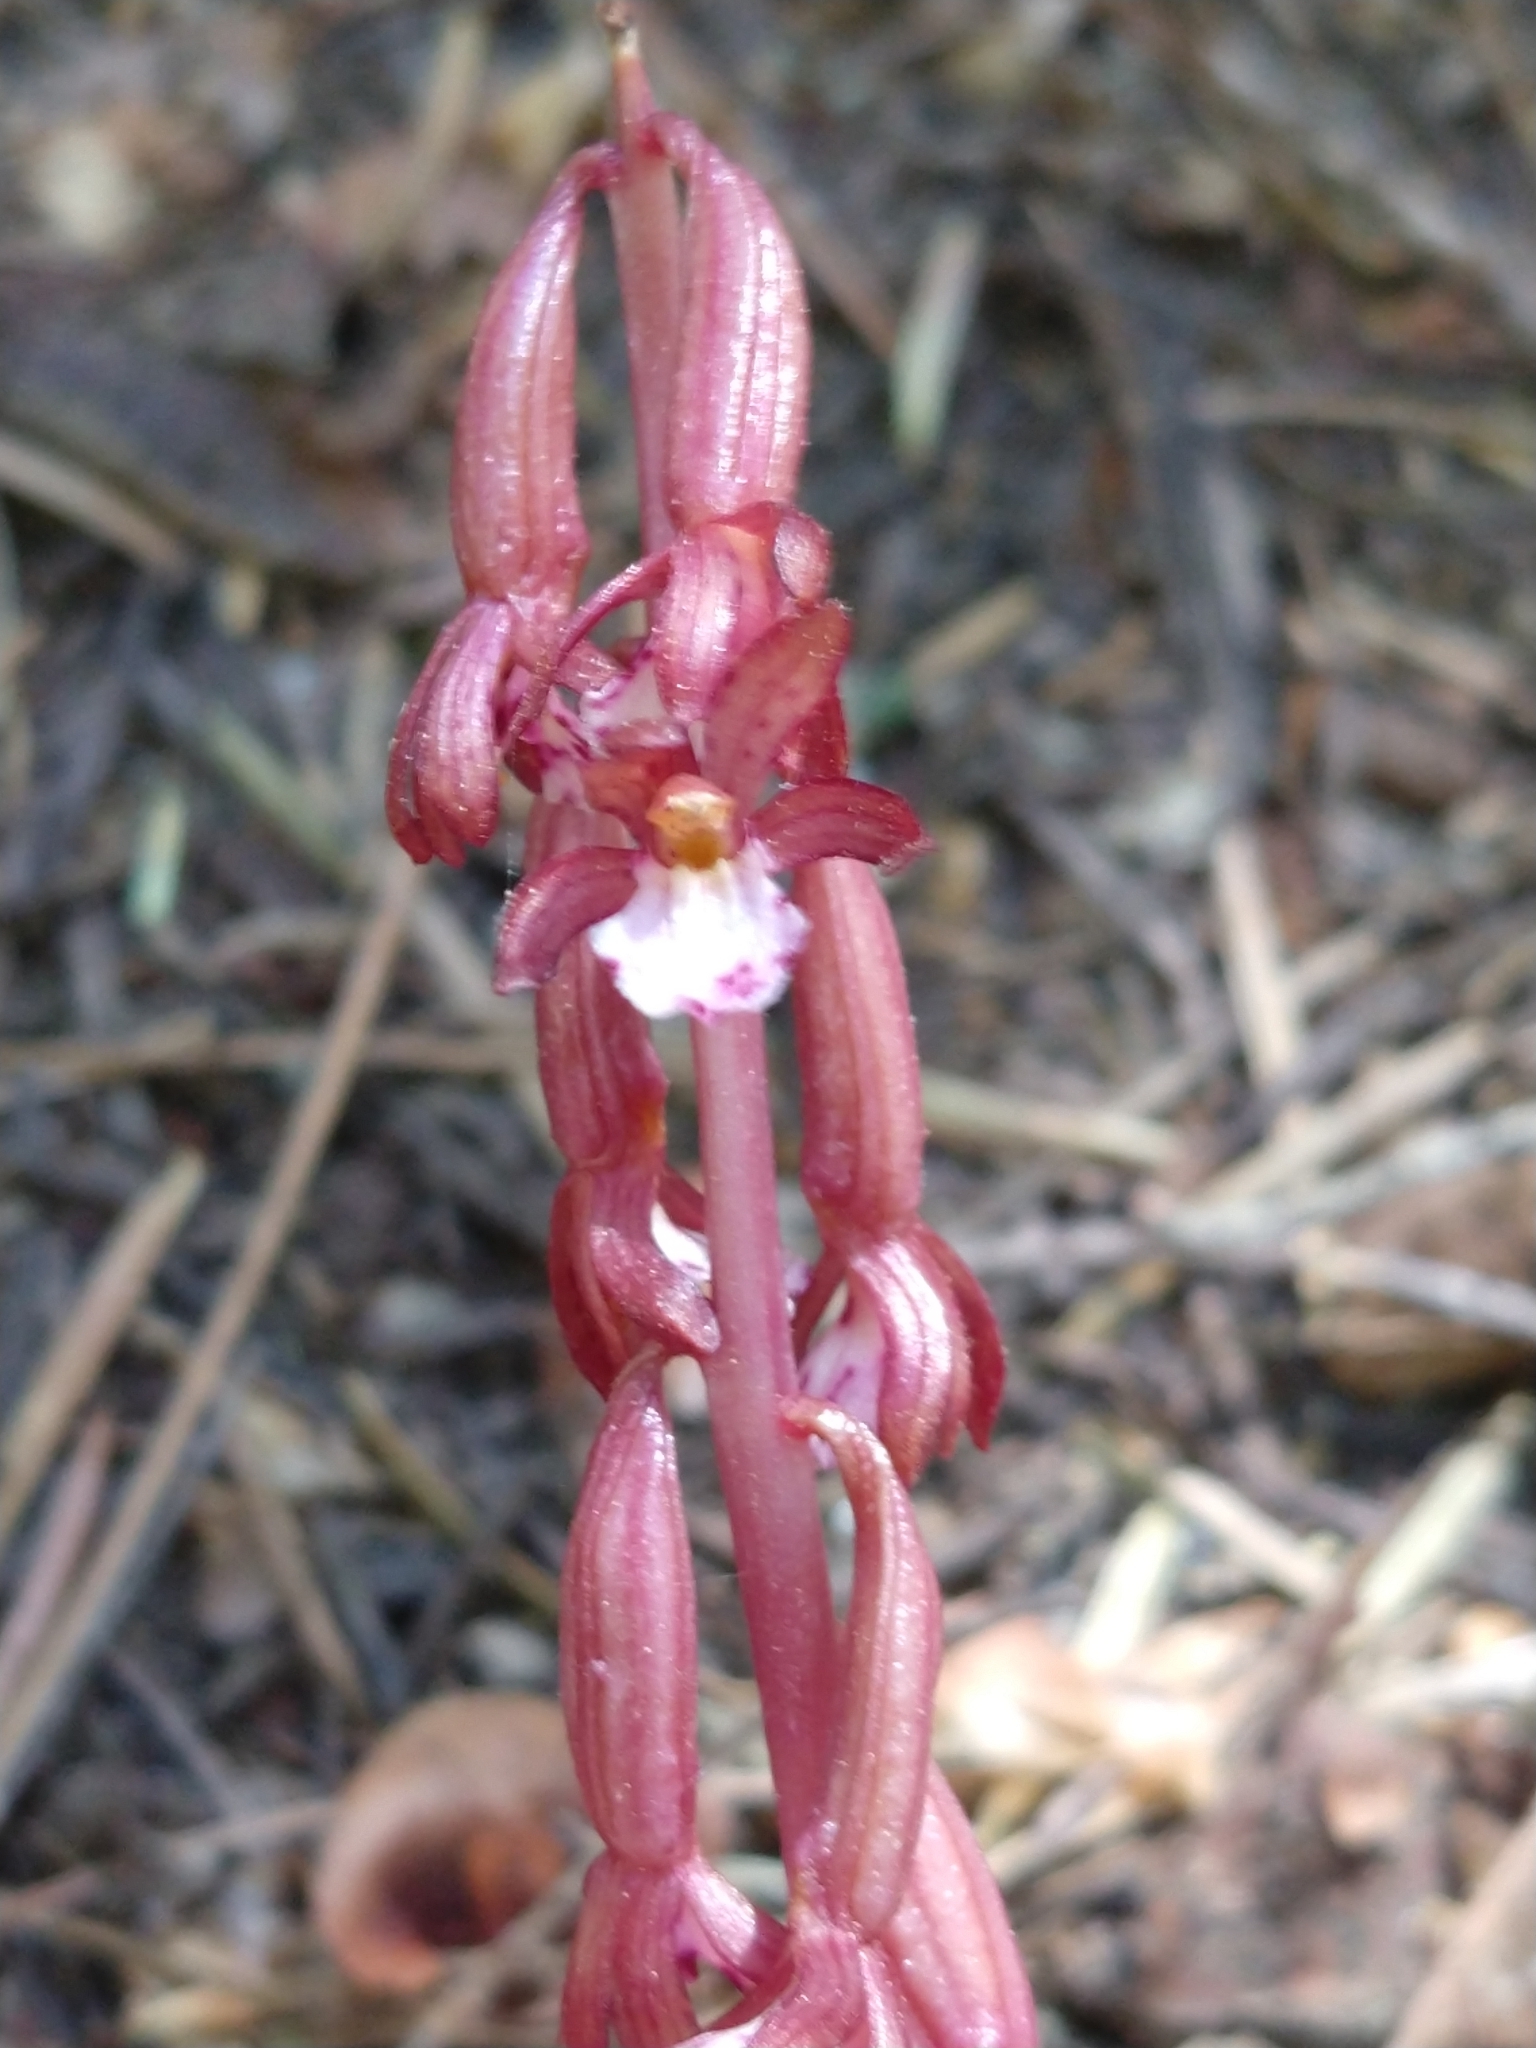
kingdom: Plantae
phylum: Tracheophyta
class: Liliopsida
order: Asparagales
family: Orchidaceae
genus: Corallorhiza
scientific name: Corallorhiza maculata
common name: Spotted coralroot
